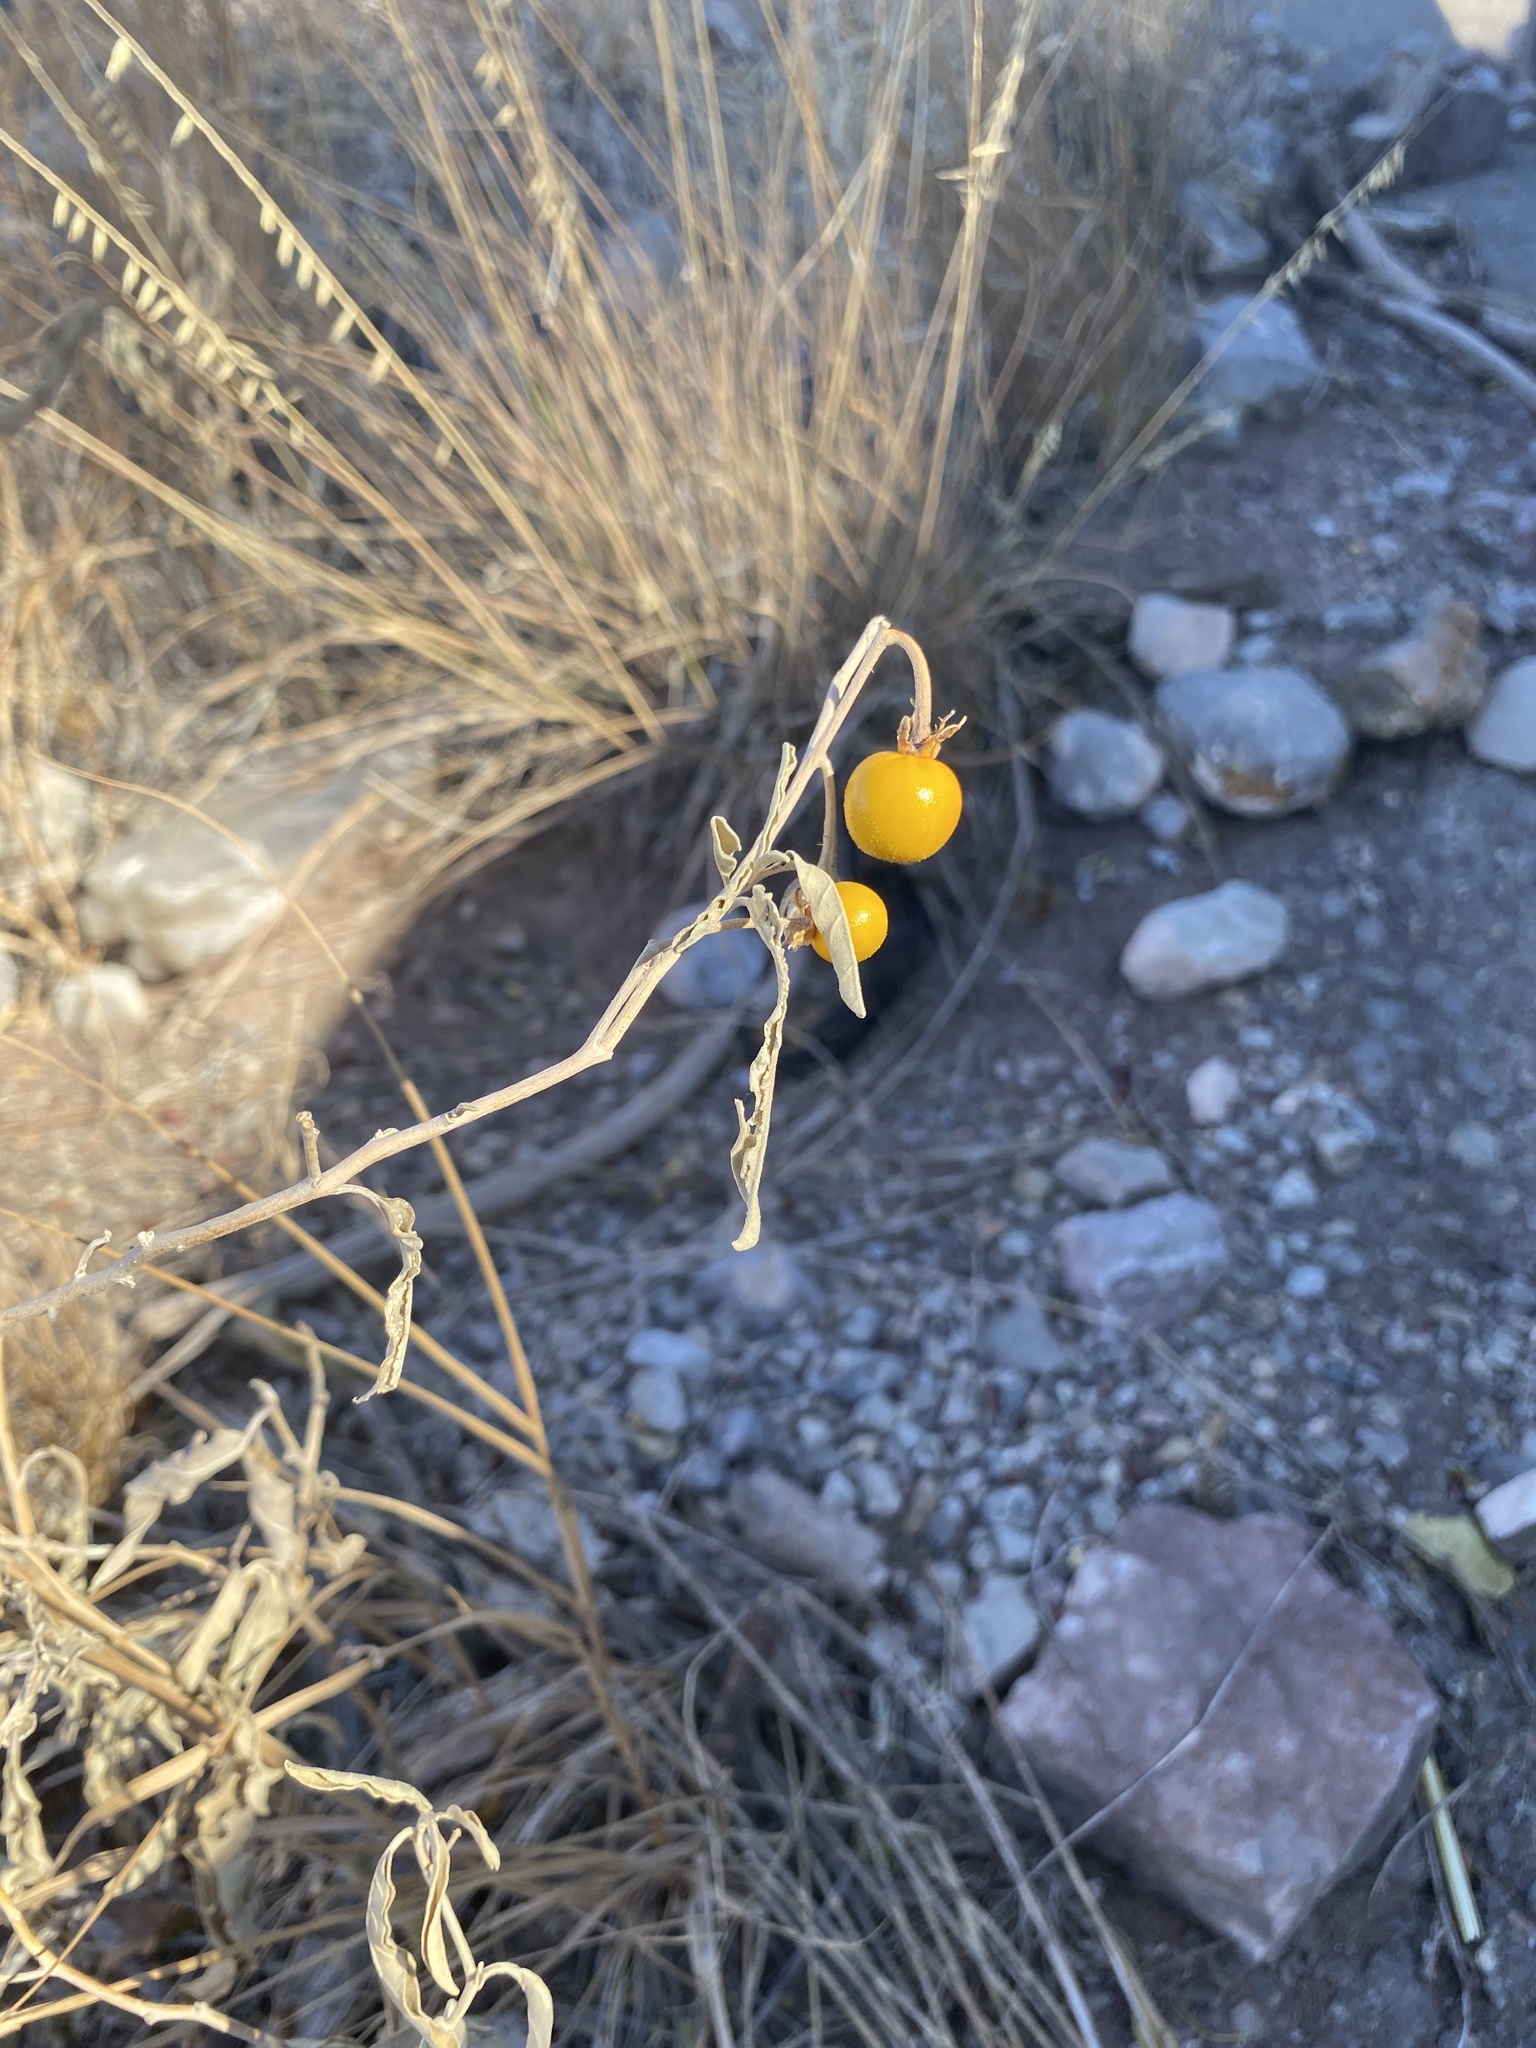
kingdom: Plantae
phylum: Tracheophyta
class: Magnoliopsida
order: Solanales
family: Solanaceae
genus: Solanum
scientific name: Solanum elaeagnifolium
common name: Silverleaf nightshade
